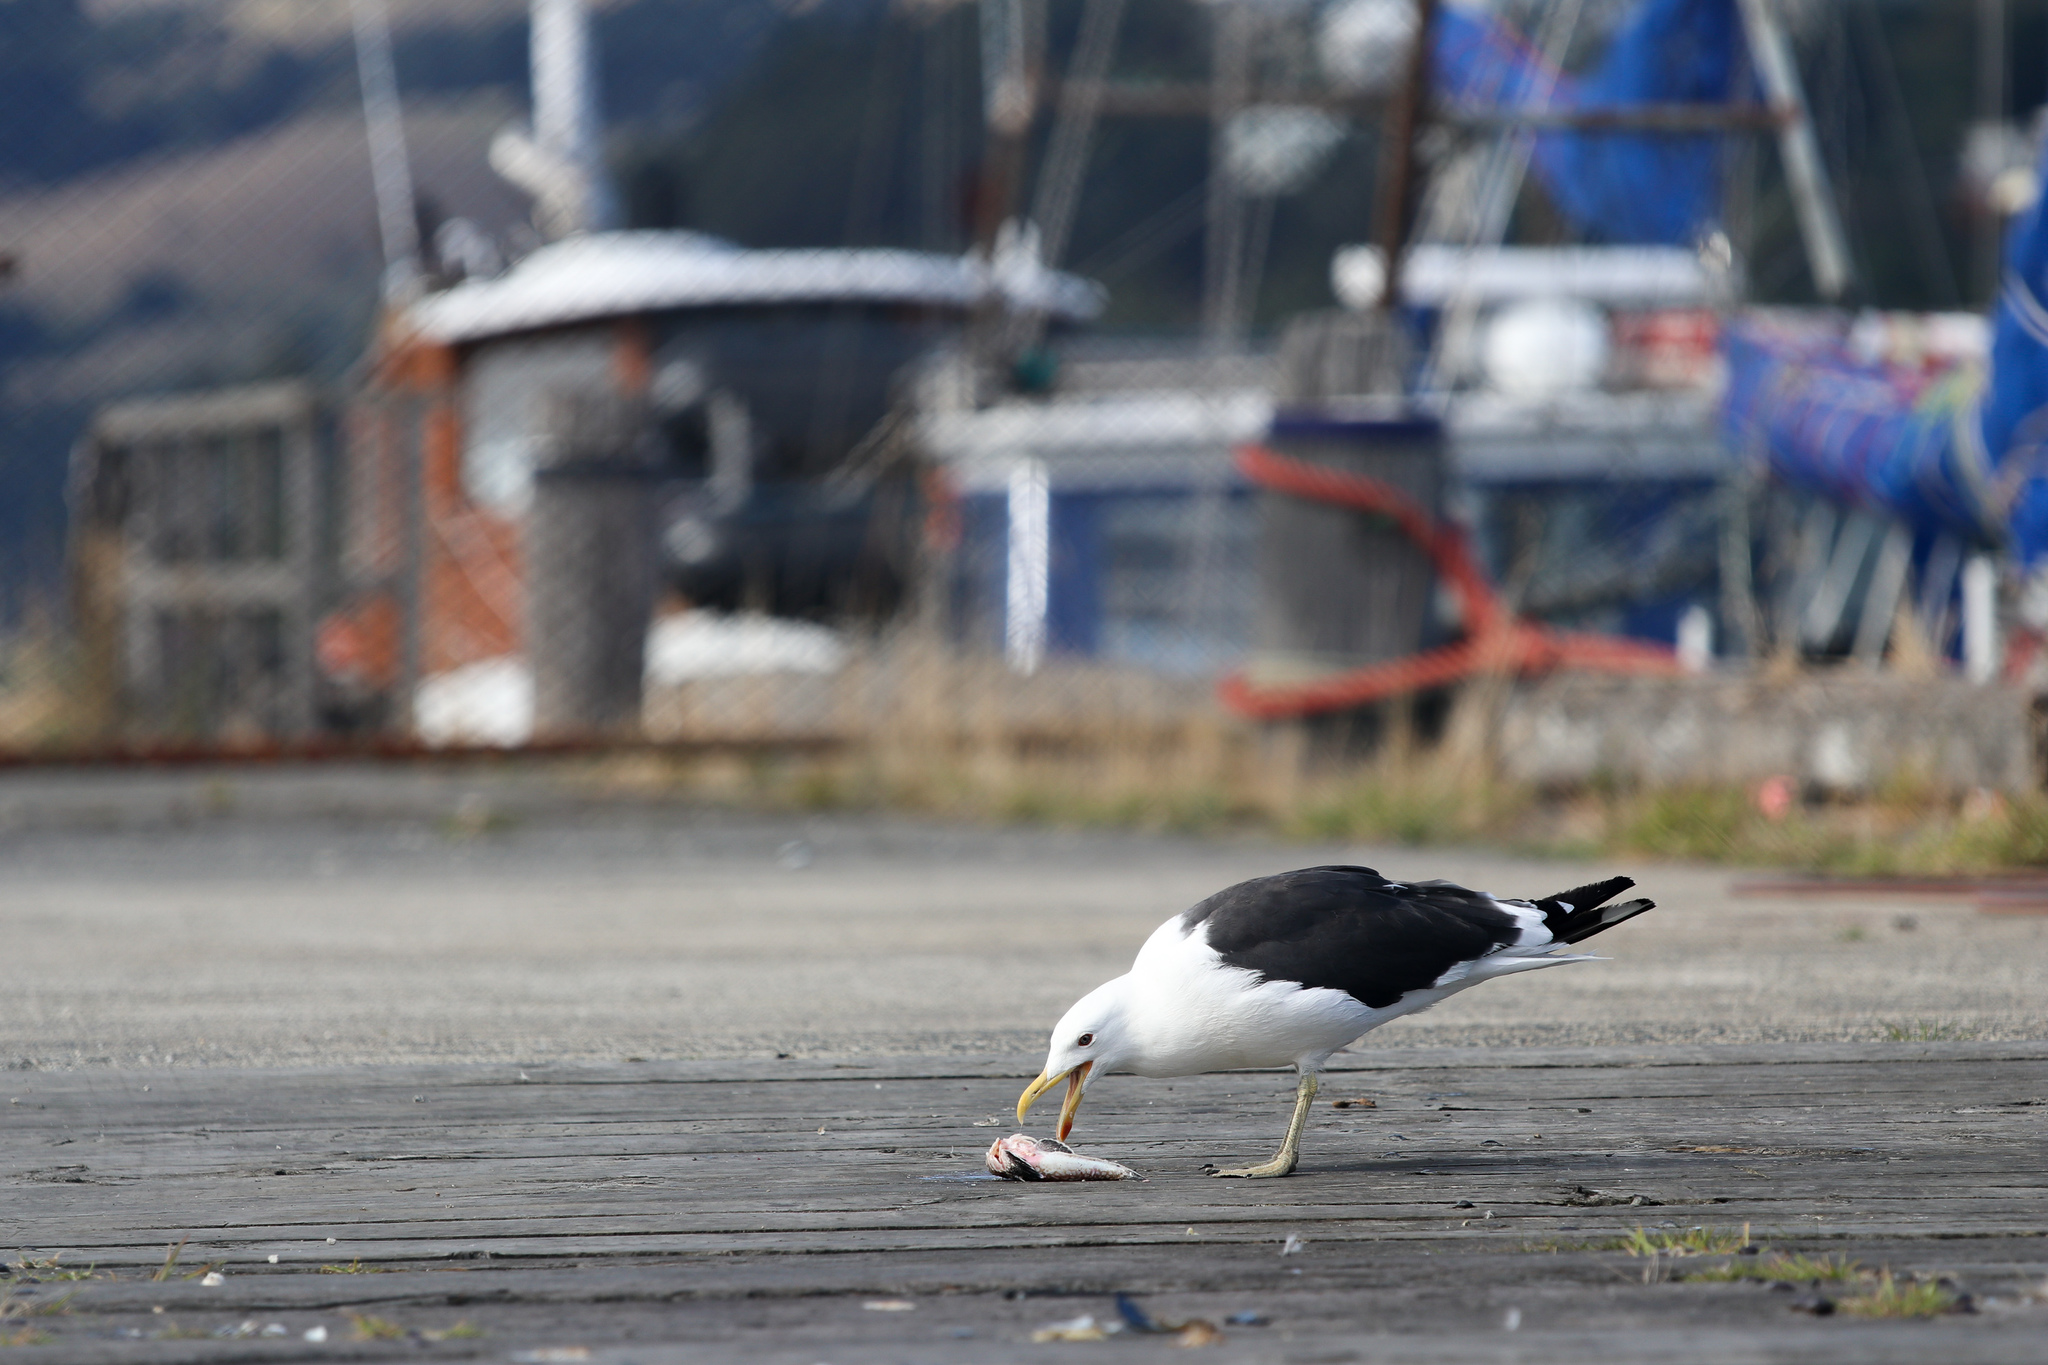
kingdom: Animalia
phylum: Chordata
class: Aves
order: Charadriiformes
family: Laridae
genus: Larus
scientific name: Larus dominicanus
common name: Kelp gull
